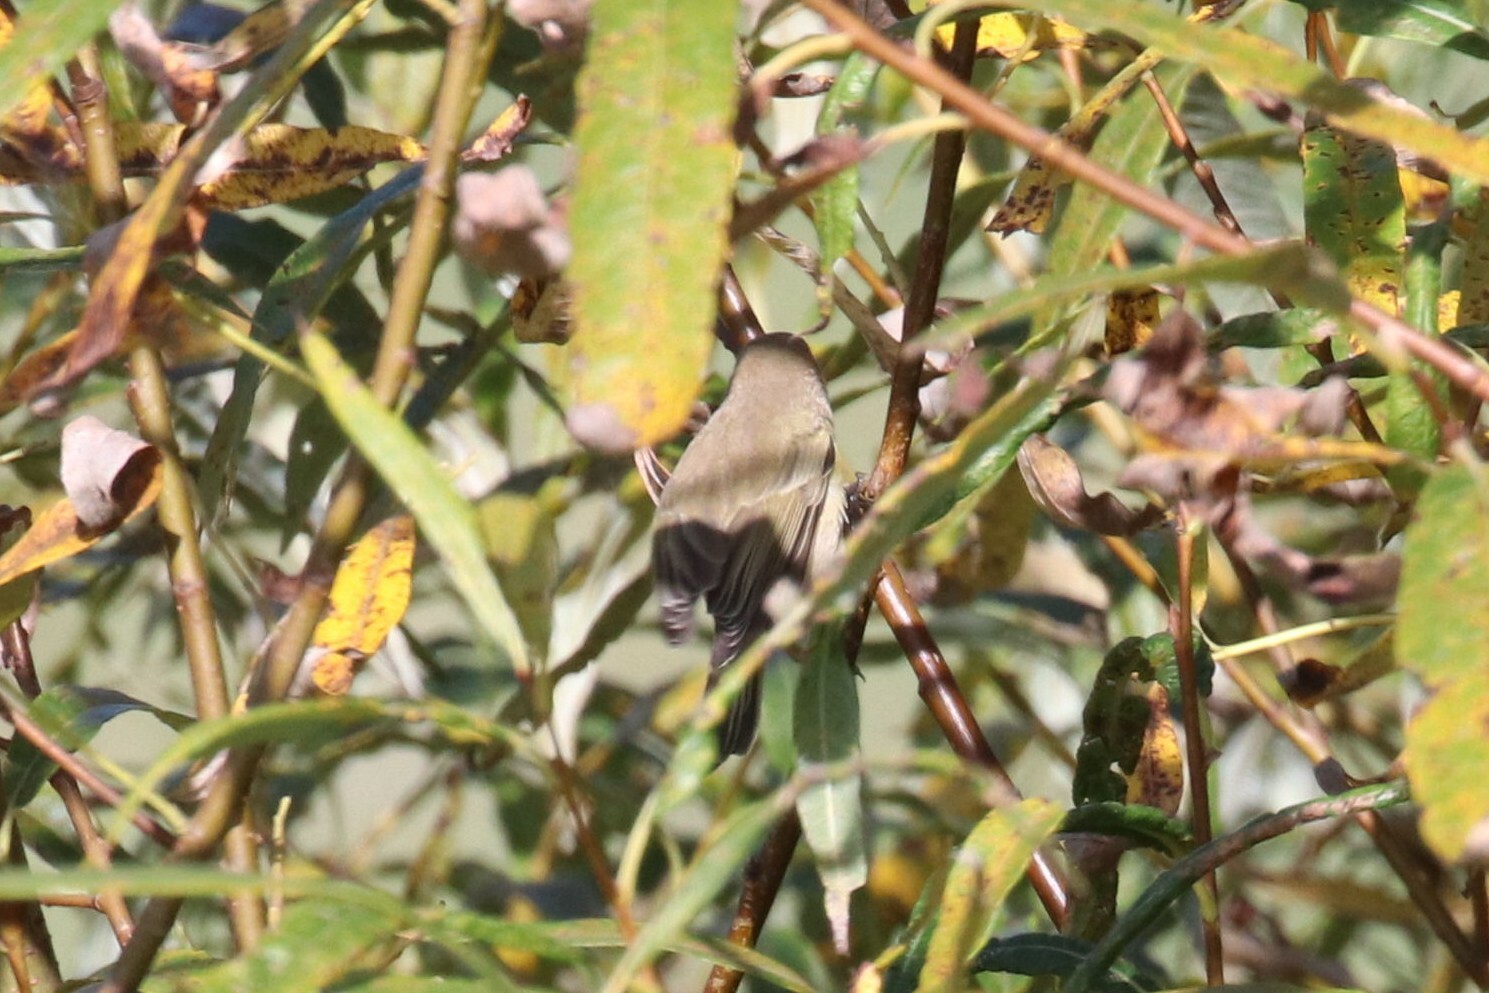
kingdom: Animalia
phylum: Chordata
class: Aves
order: Passeriformes
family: Phylloscopidae
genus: Phylloscopus
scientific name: Phylloscopus collybita
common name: Common chiffchaff
